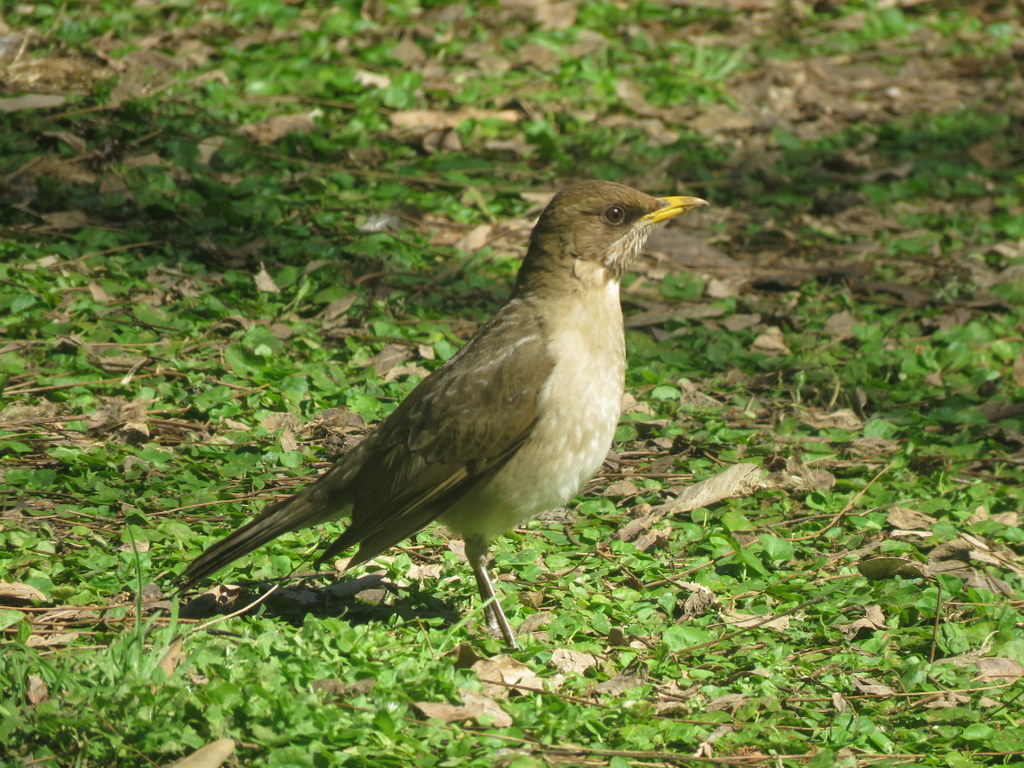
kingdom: Animalia
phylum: Chordata
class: Aves
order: Passeriformes
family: Turdidae
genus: Turdus
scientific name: Turdus amaurochalinus
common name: Creamy-bellied thrush
